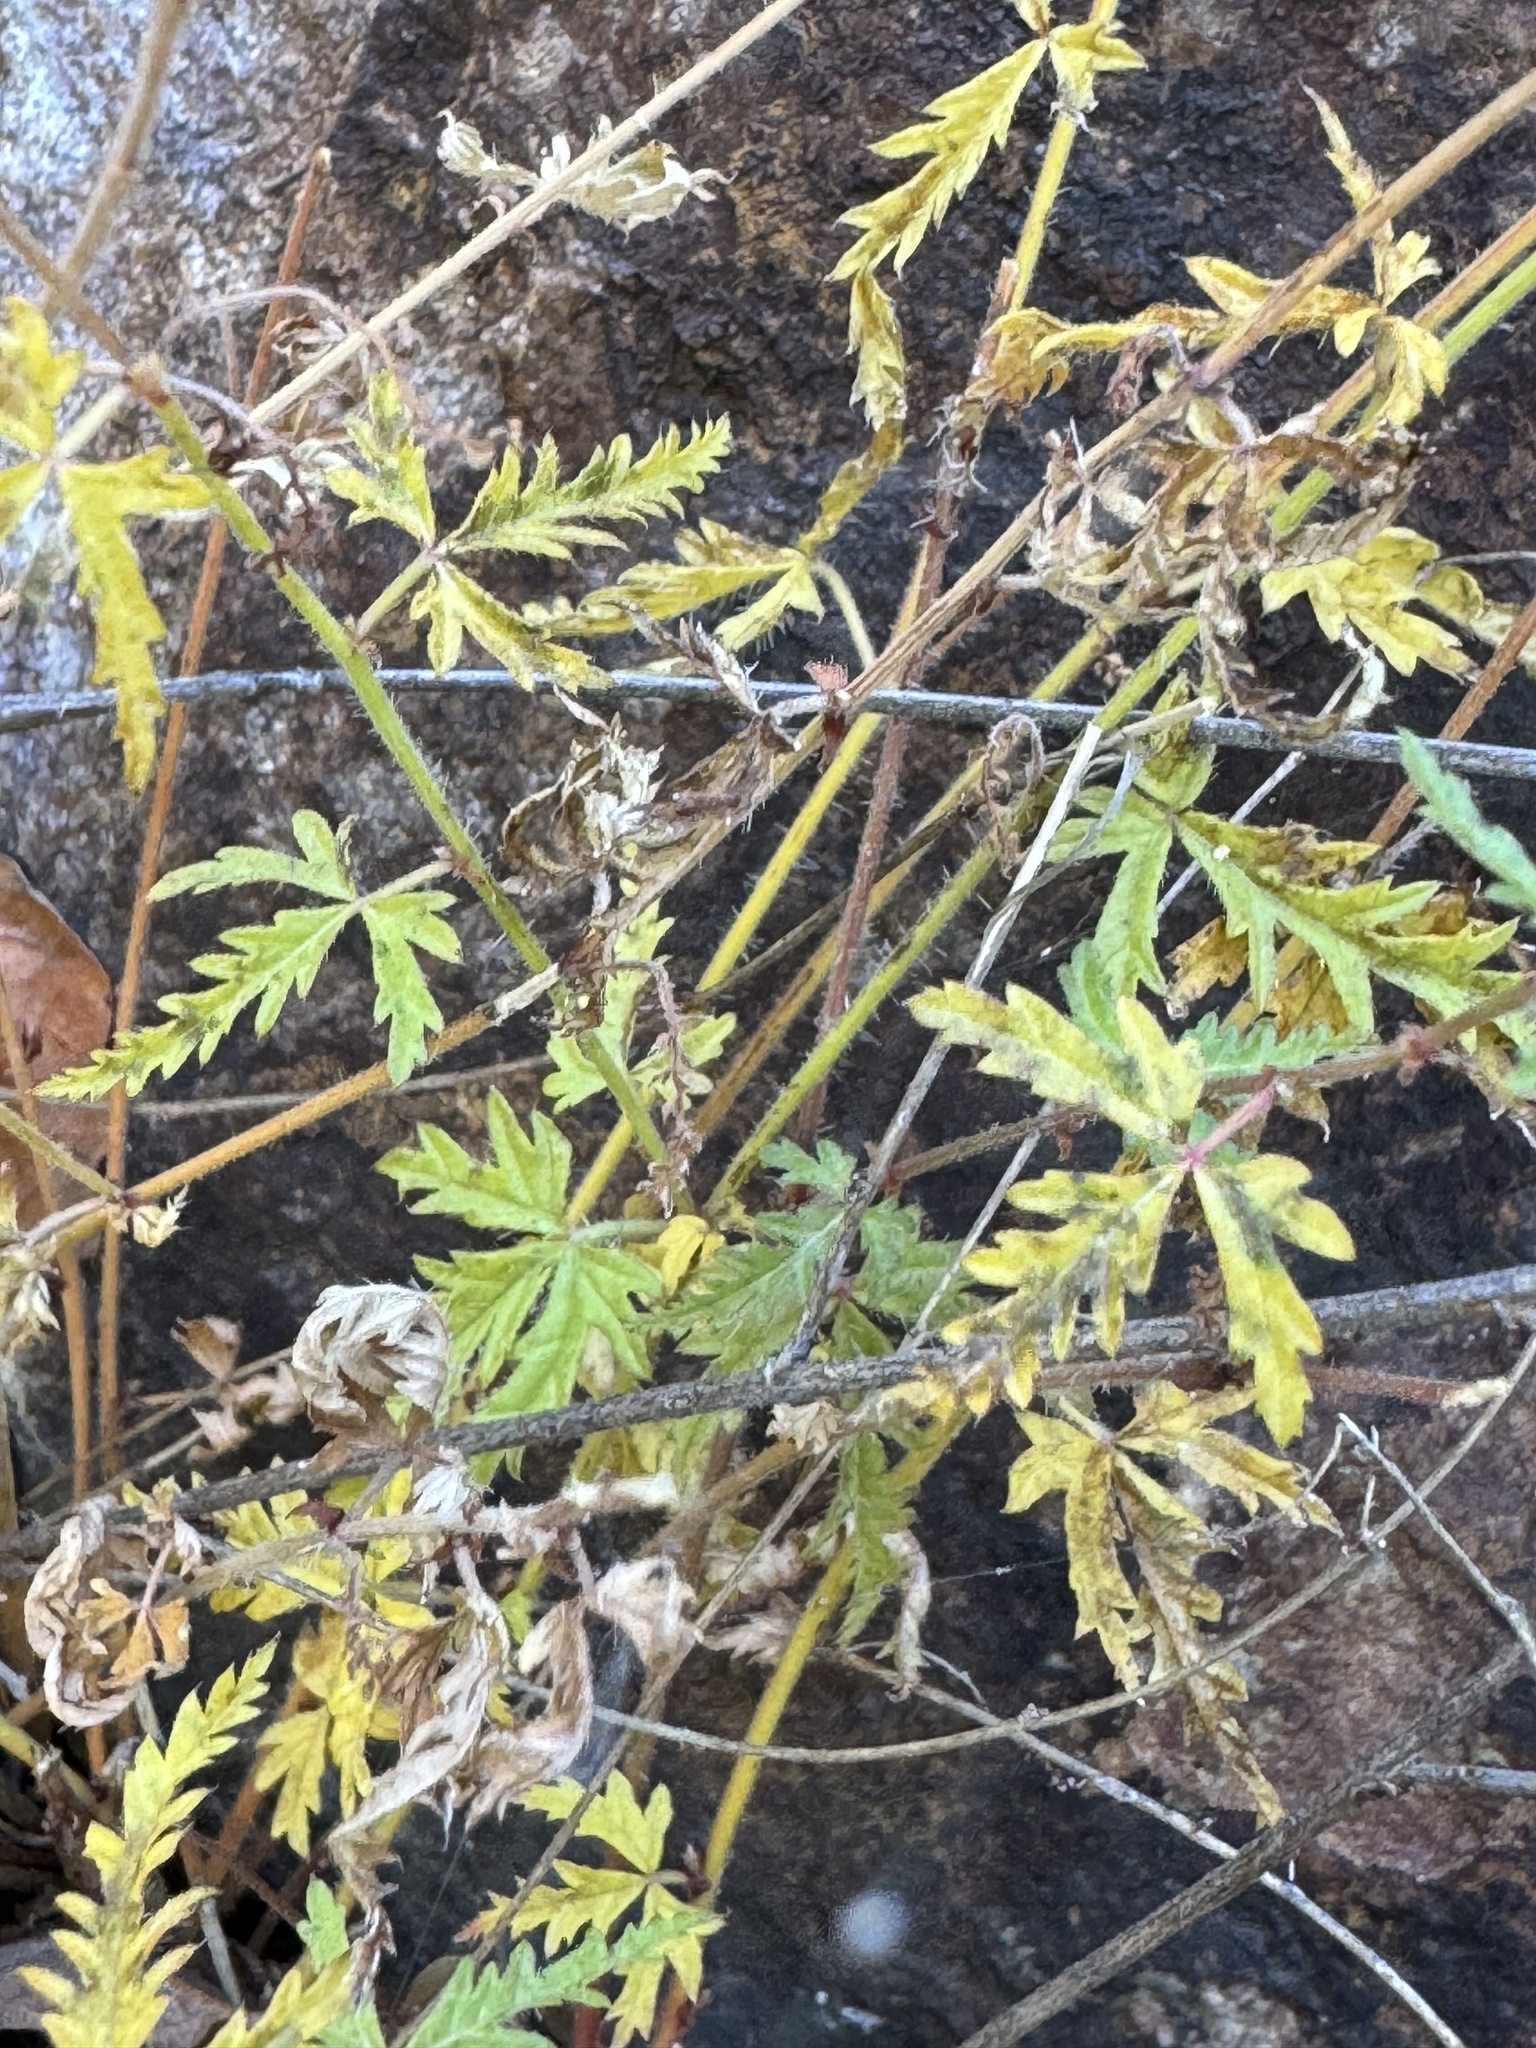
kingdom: Plantae
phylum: Tracheophyta
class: Magnoliopsida
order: Malpighiales
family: Euphorbiaceae
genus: Tragia
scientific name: Tragia laciniata
